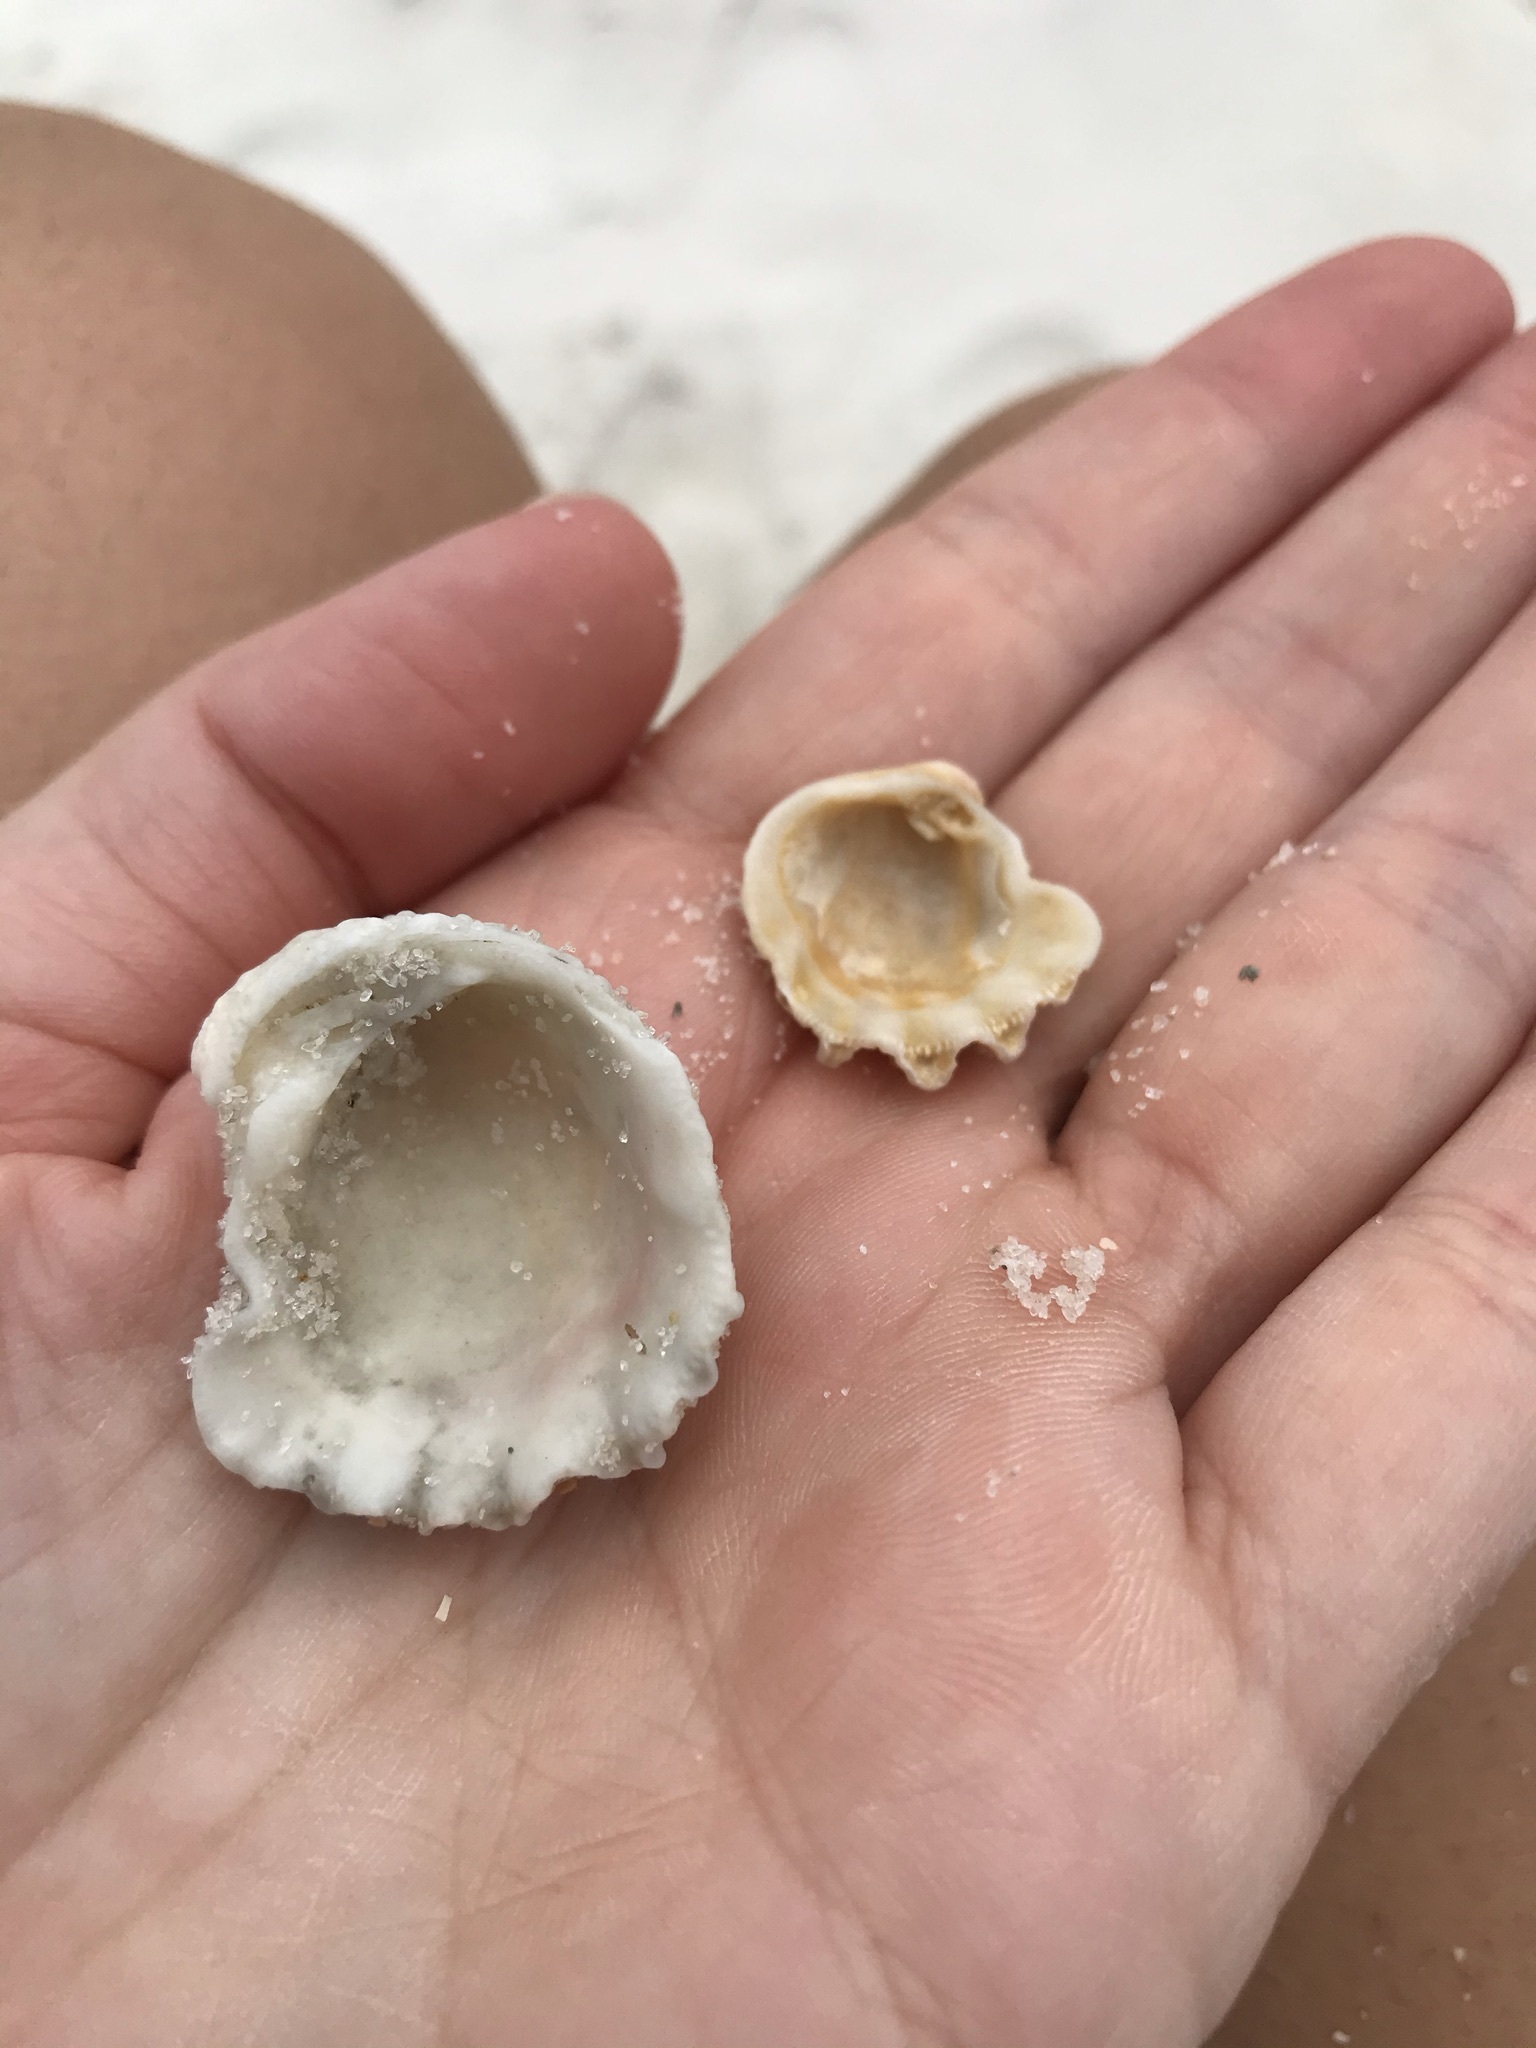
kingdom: Animalia
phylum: Mollusca
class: Bivalvia
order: Venerida
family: Chamidae
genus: Arcinella
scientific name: Arcinella cornuta
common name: Florida spiny jewel box
